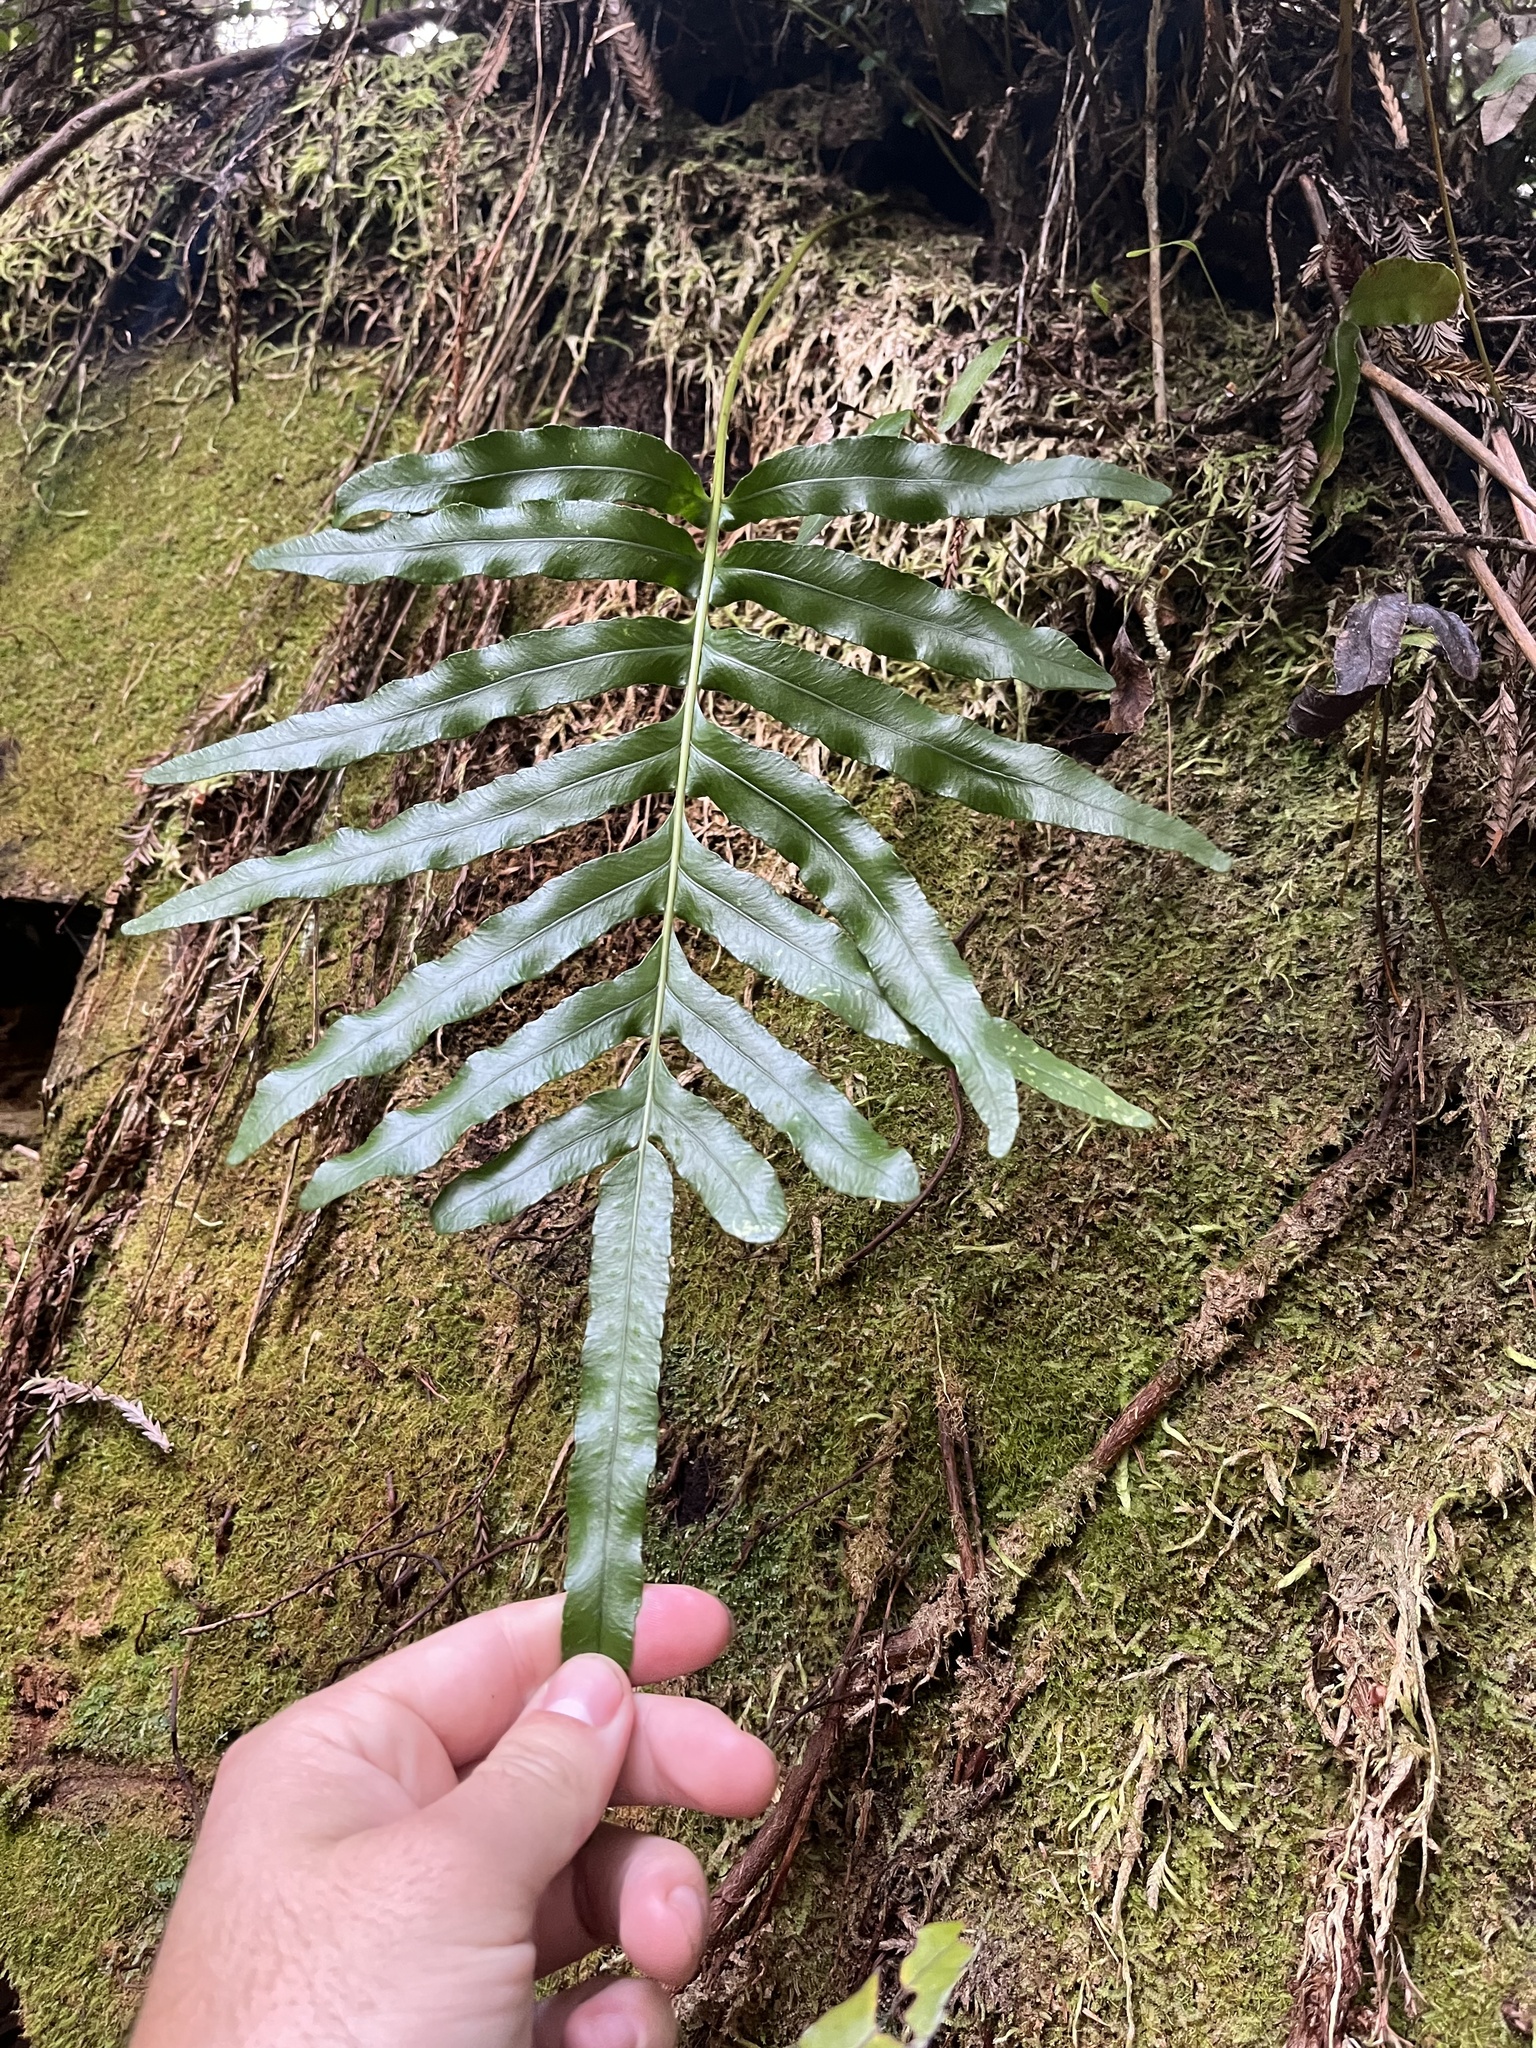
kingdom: Plantae
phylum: Tracheophyta
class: Polypodiopsida
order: Polypodiales
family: Polypodiaceae
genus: Polypodium
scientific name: Polypodium scouleri
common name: Scouler's polypody
